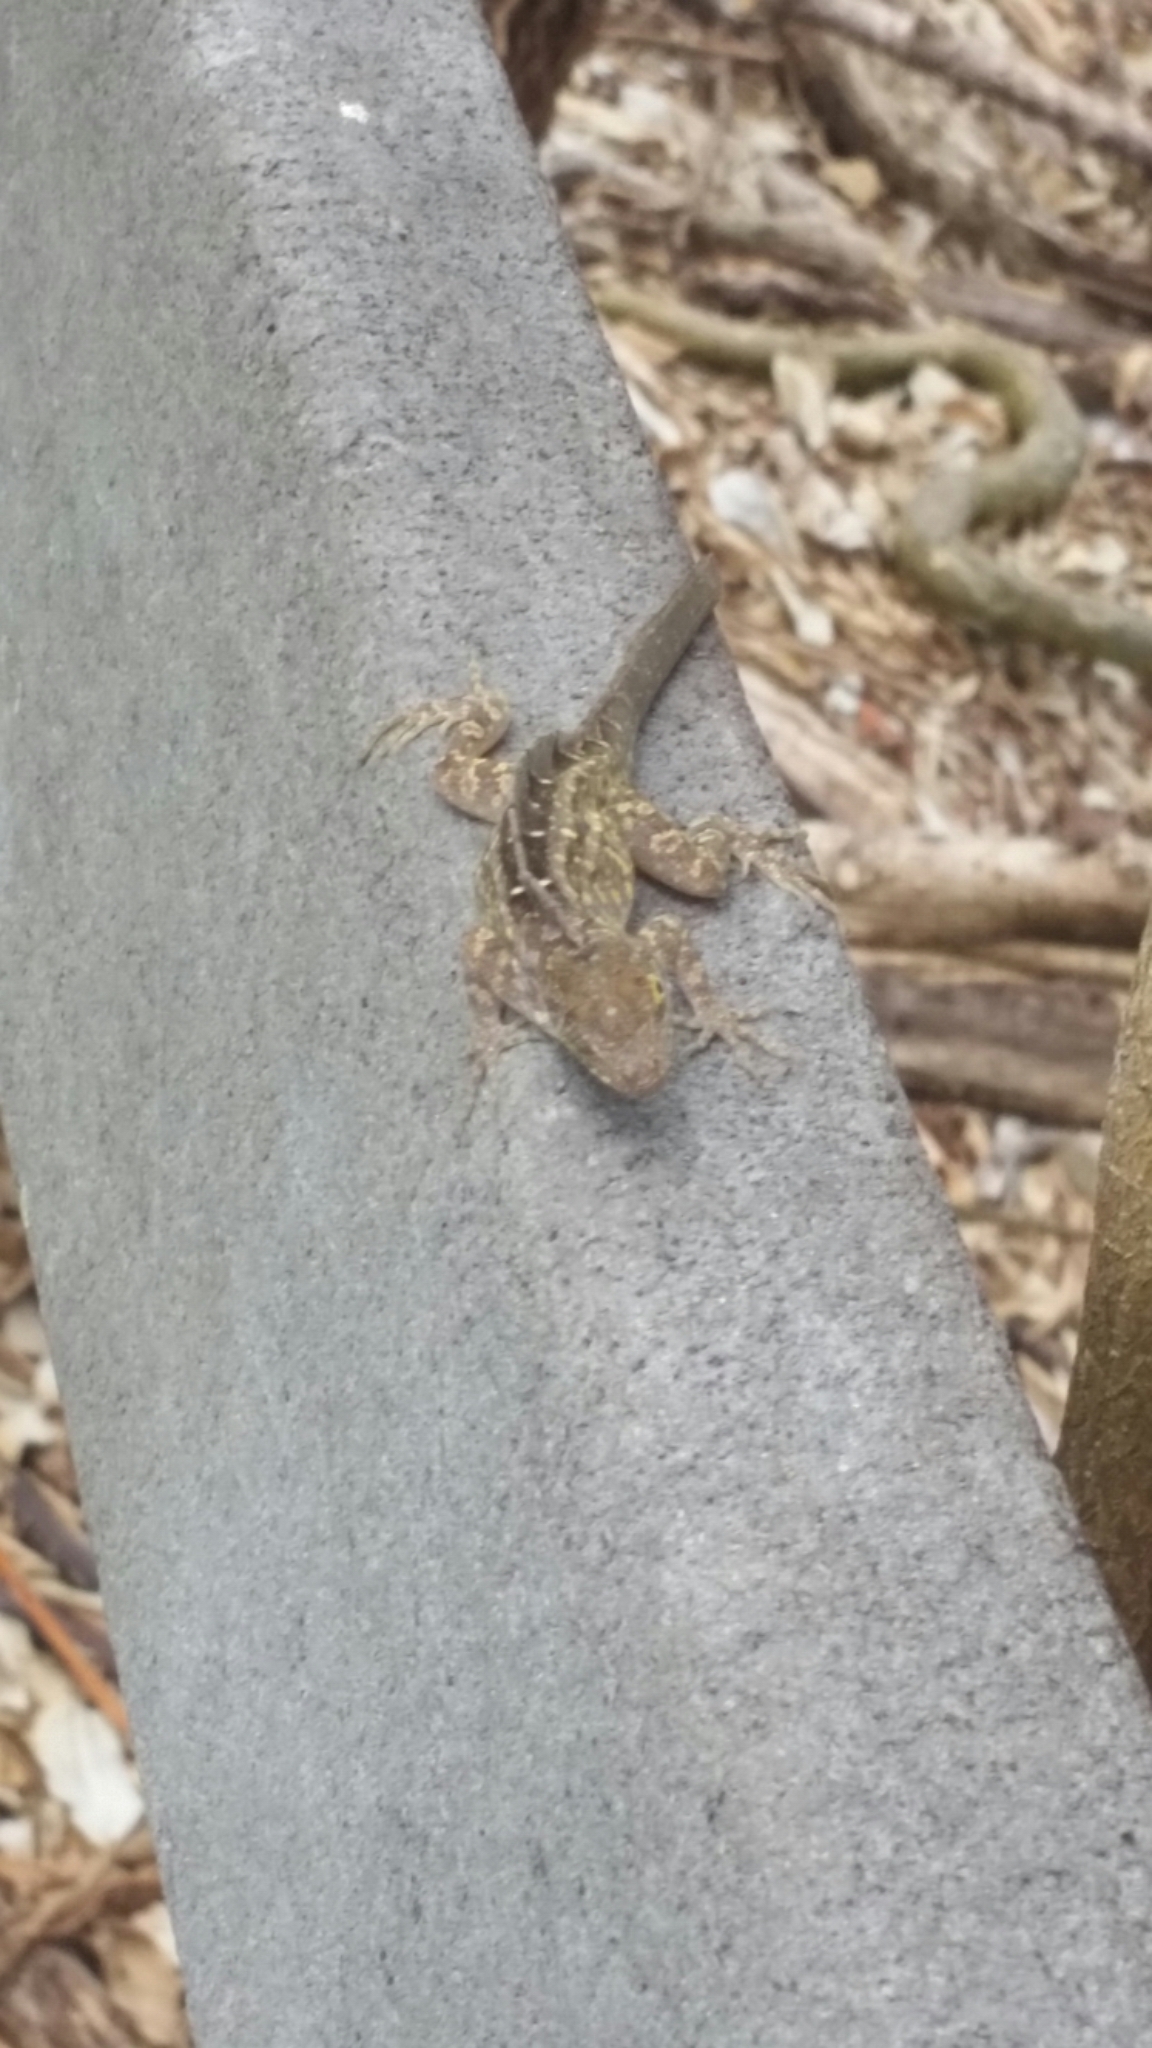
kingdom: Animalia
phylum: Chordata
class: Squamata
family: Dactyloidae
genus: Anolis
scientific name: Anolis sagrei
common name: Brown anole
